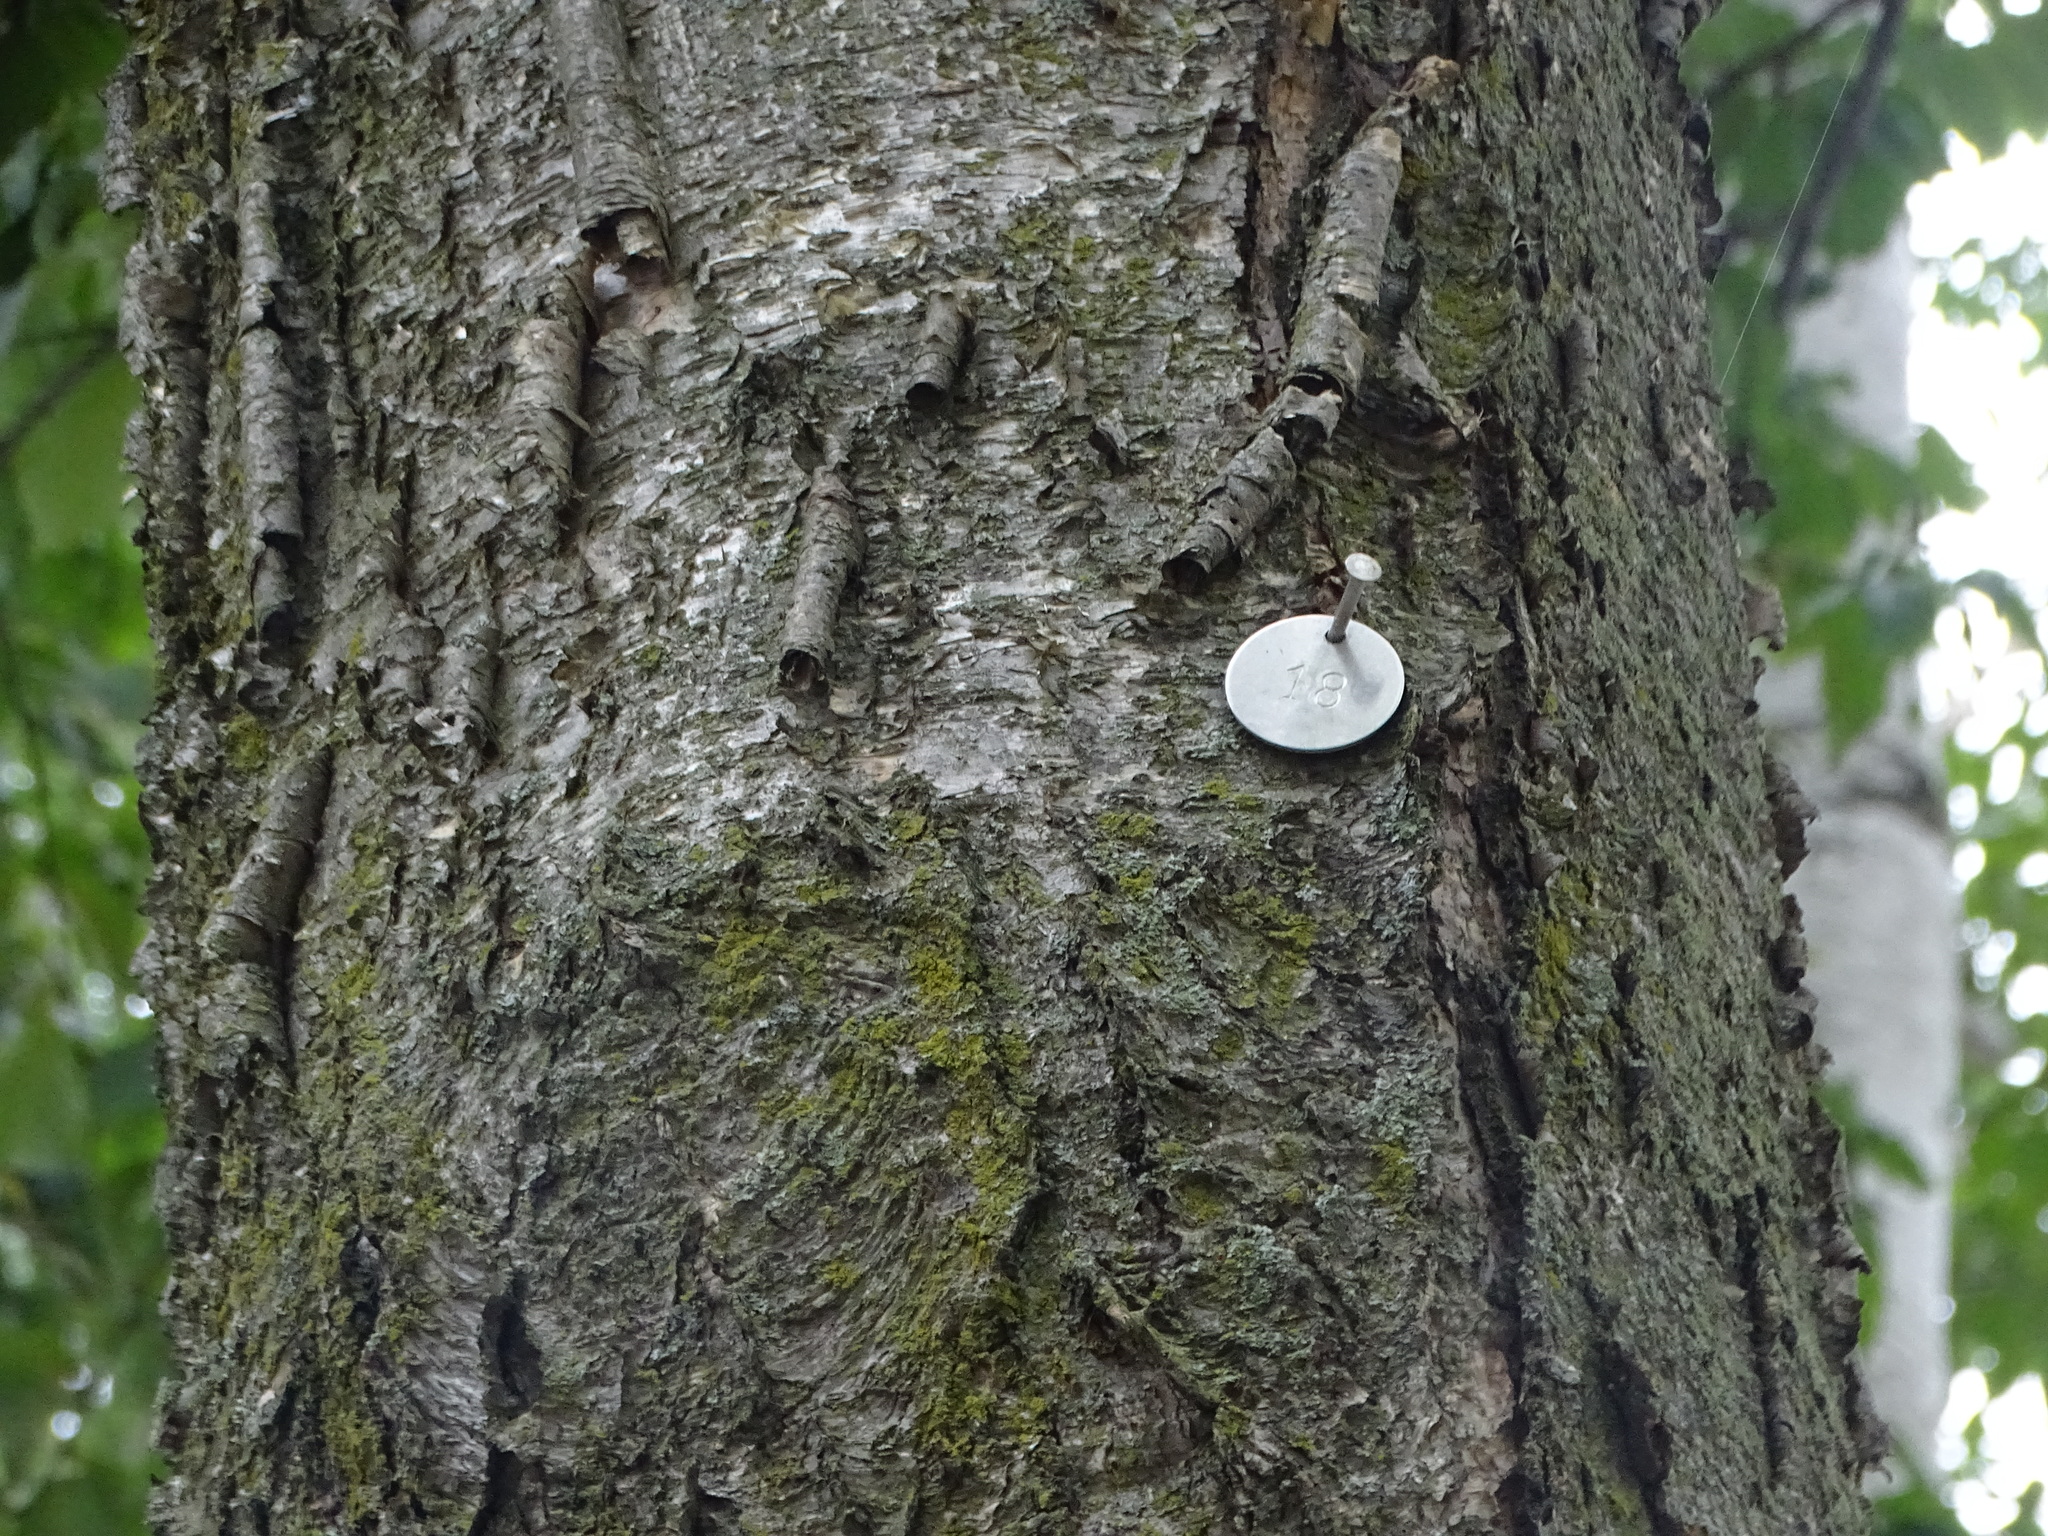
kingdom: Plantae
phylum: Tracheophyta
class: Magnoliopsida
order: Fagales
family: Betulaceae
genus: Betula
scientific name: Betula alleghaniensis
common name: Yellow birch
